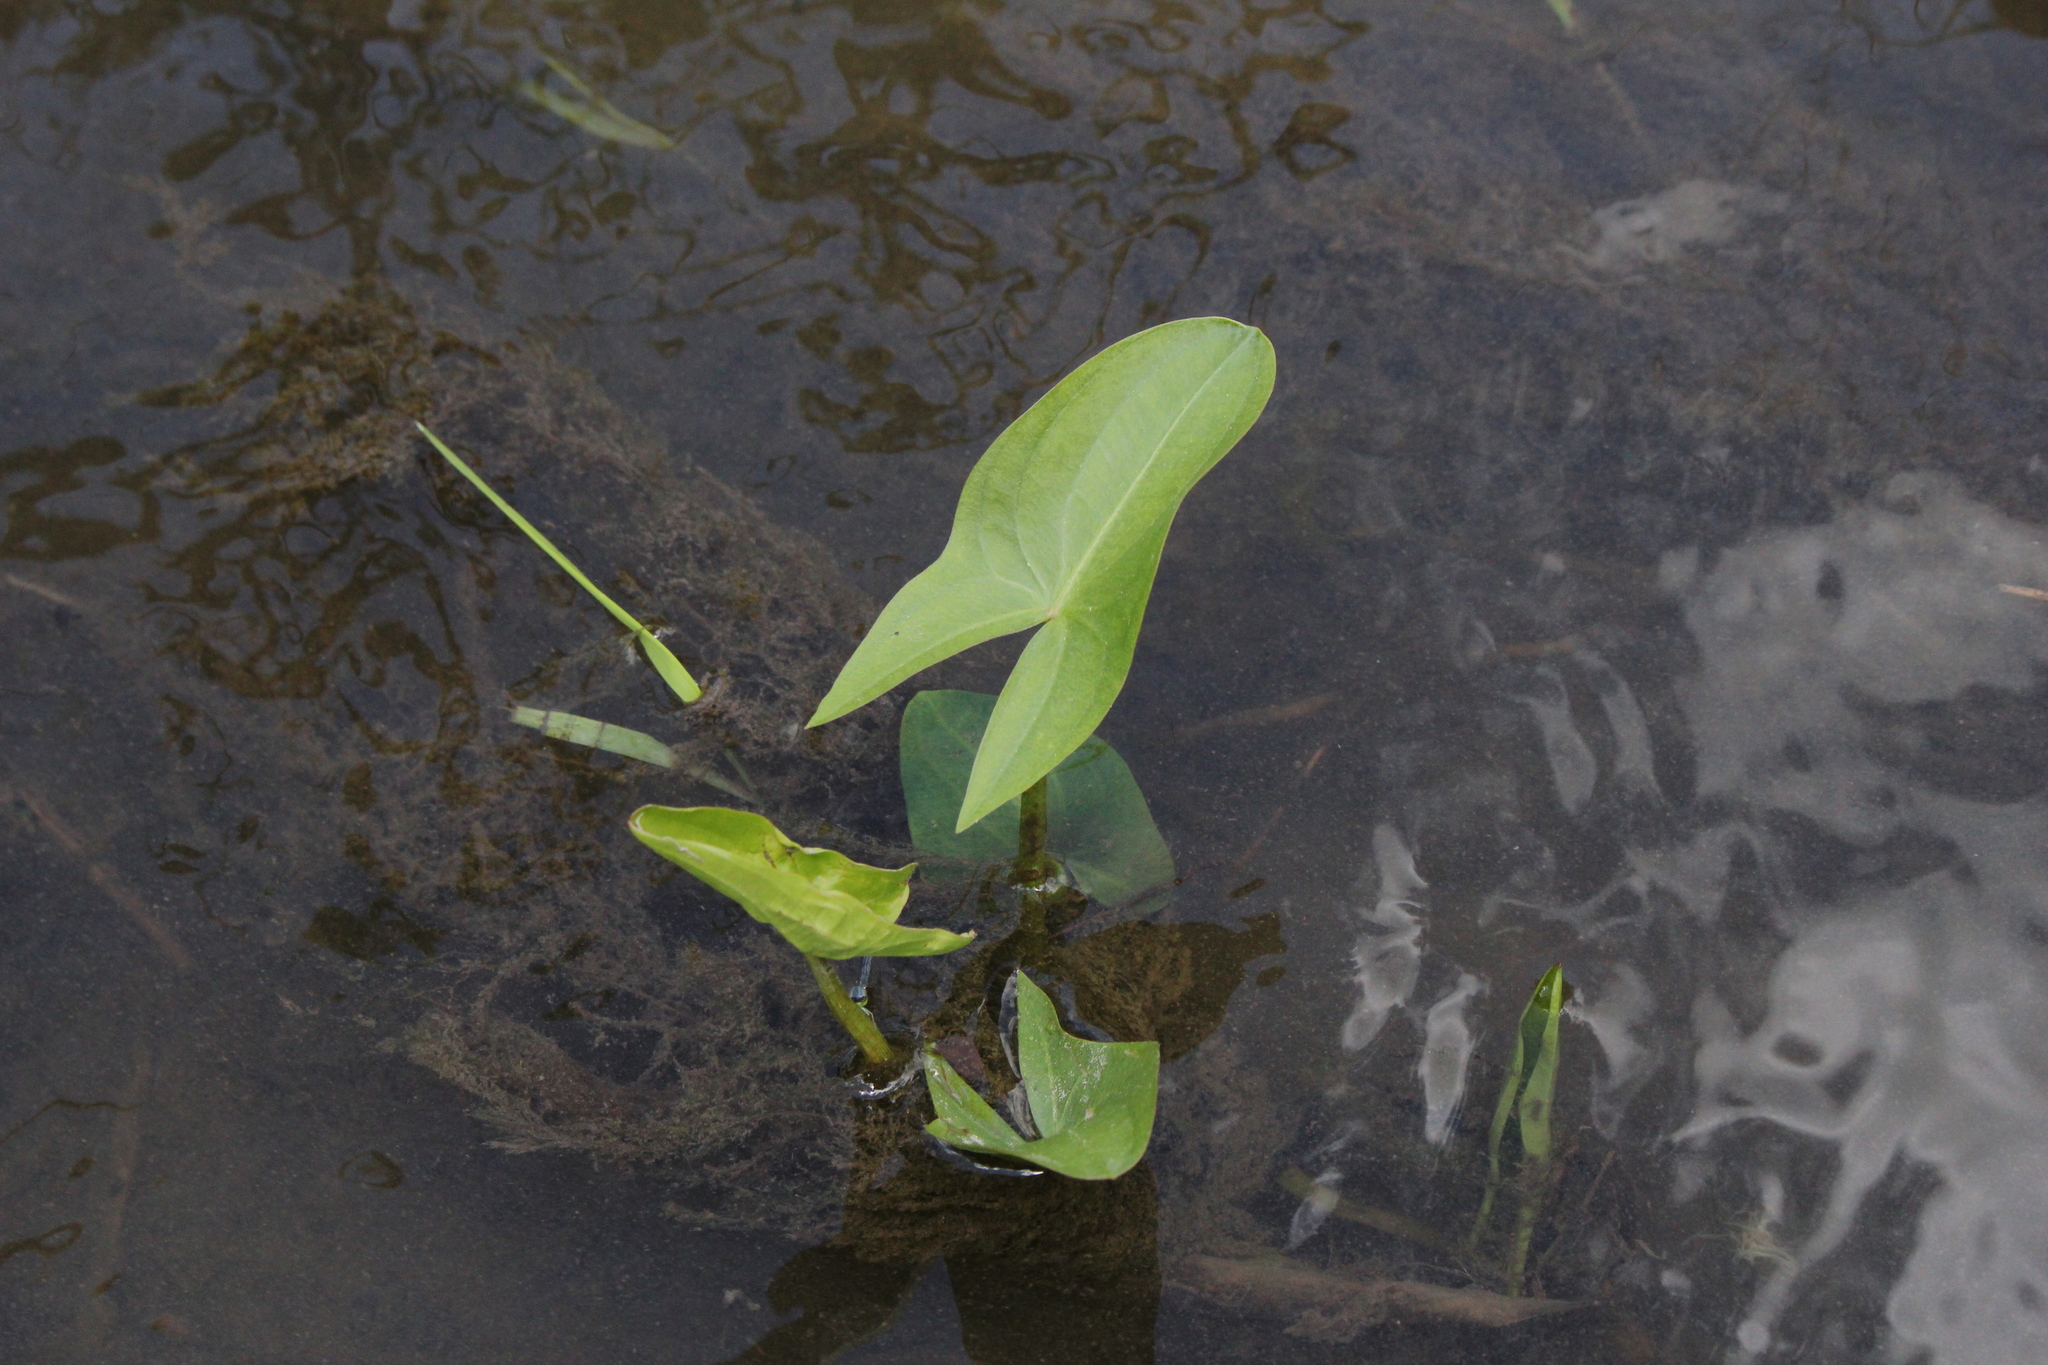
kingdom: Plantae
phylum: Tracheophyta
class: Liliopsida
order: Alismatales
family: Alismataceae
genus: Sagittaria
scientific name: Sagittaria latifolia
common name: Duck-potato
